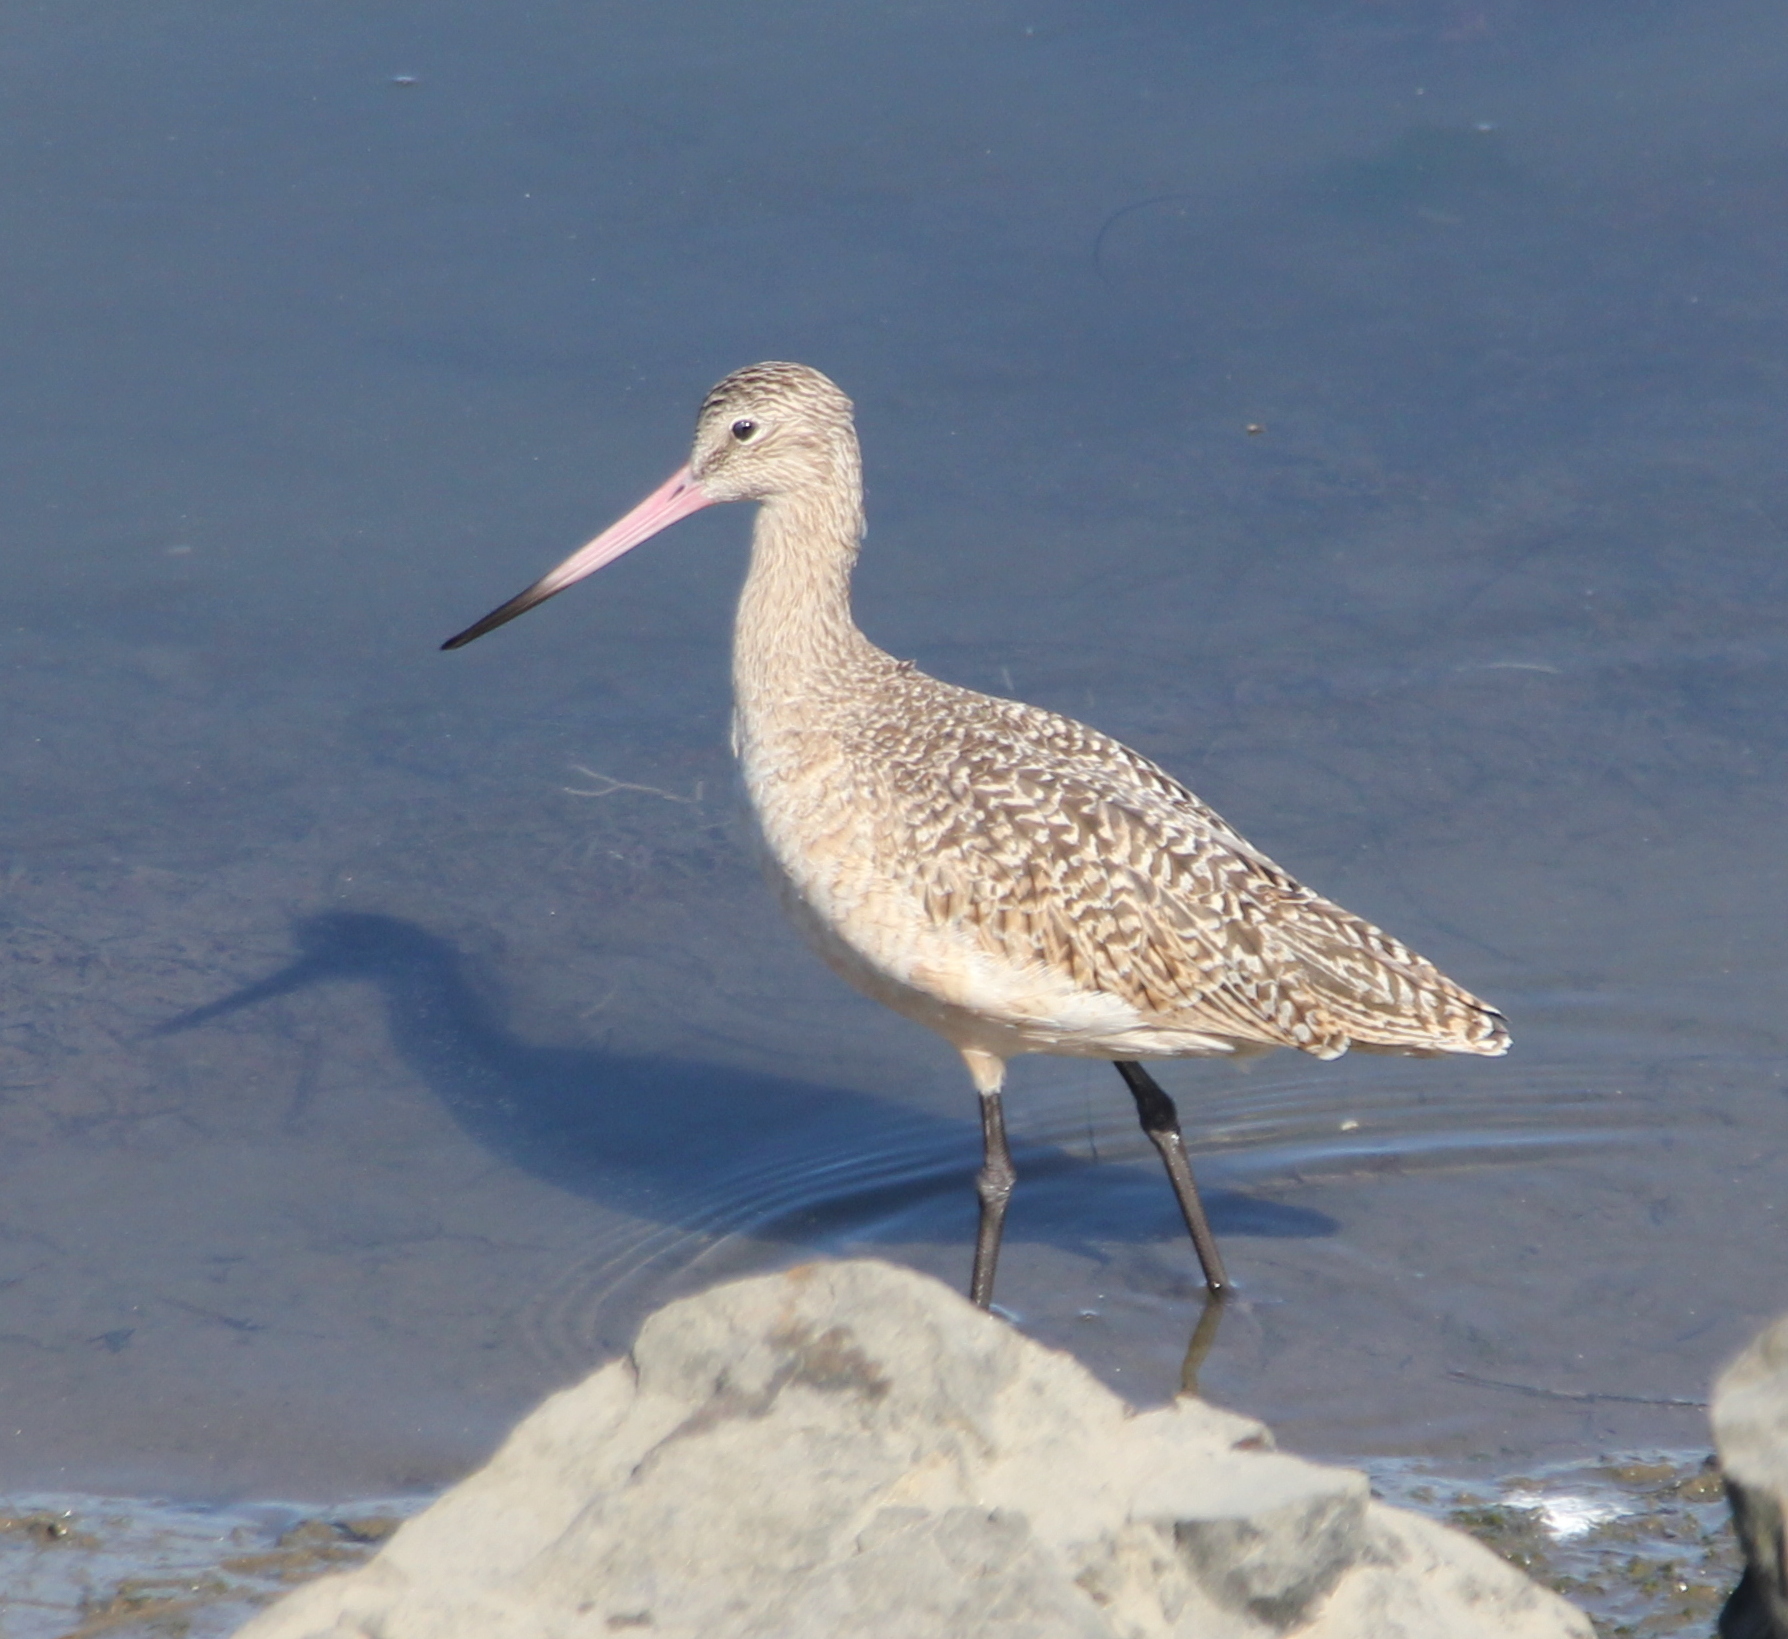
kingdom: Animalia
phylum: Chordata
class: Aves
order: Charadriiformes
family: Scolopacidae
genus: Limosa
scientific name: Limosa fedoa
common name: Marbled godwit
